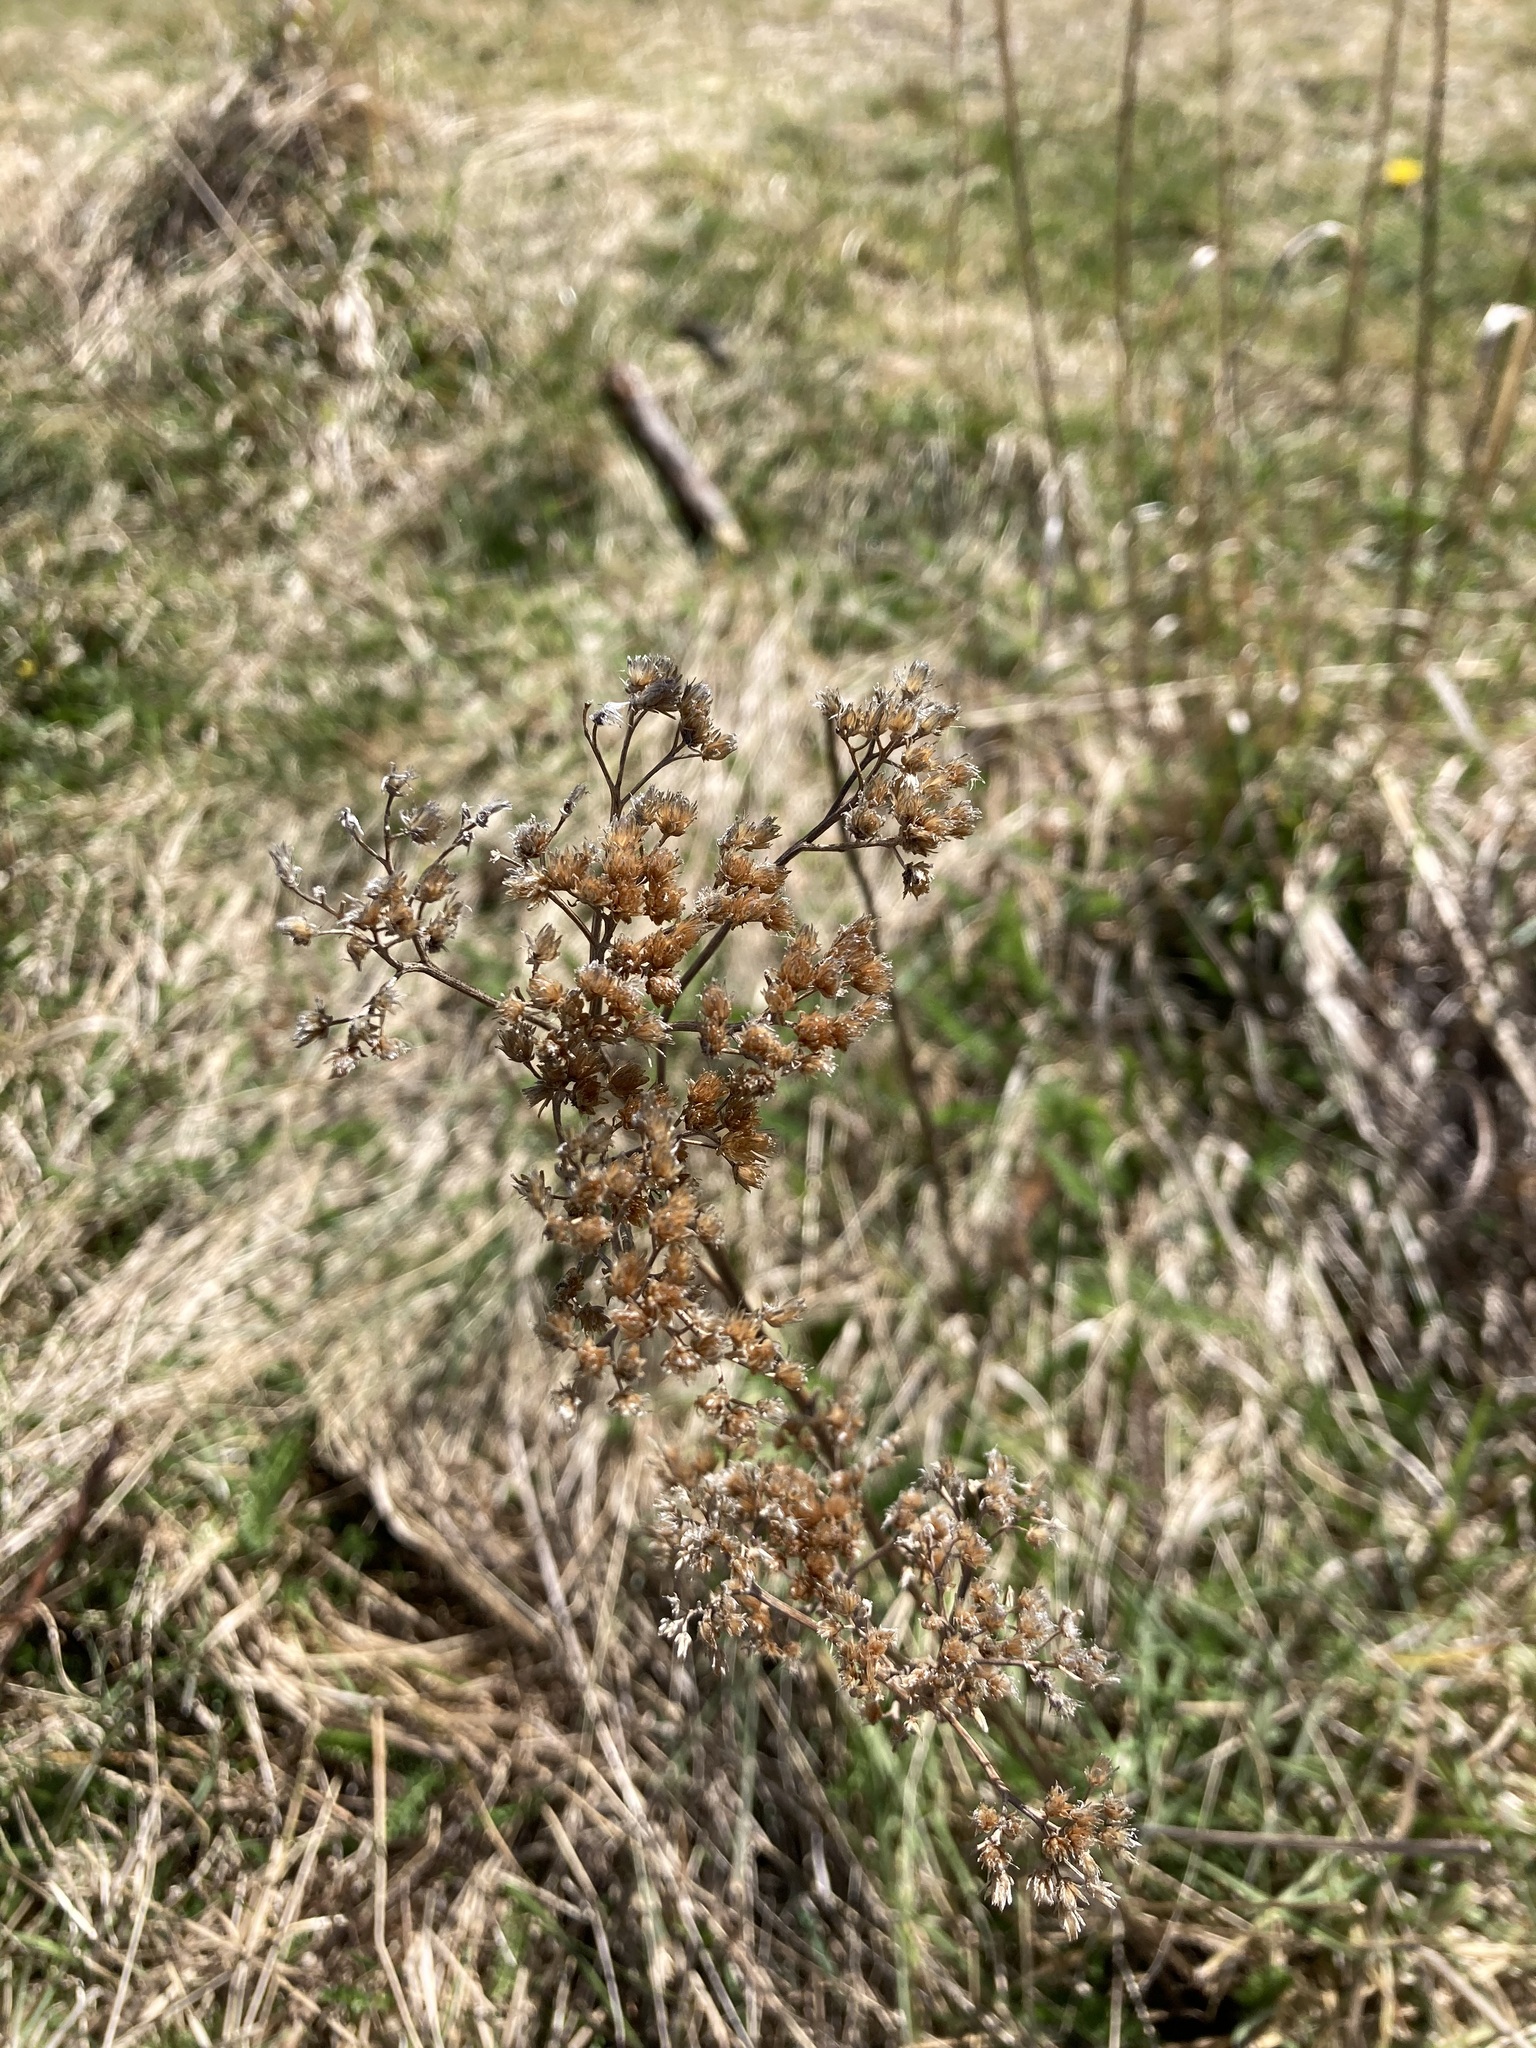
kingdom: Plantae
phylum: Tracheophyta
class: Magnoliopsida
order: Asterales
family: Asteraceae
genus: Achillea
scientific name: Achillea millefolium
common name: Yarrow
